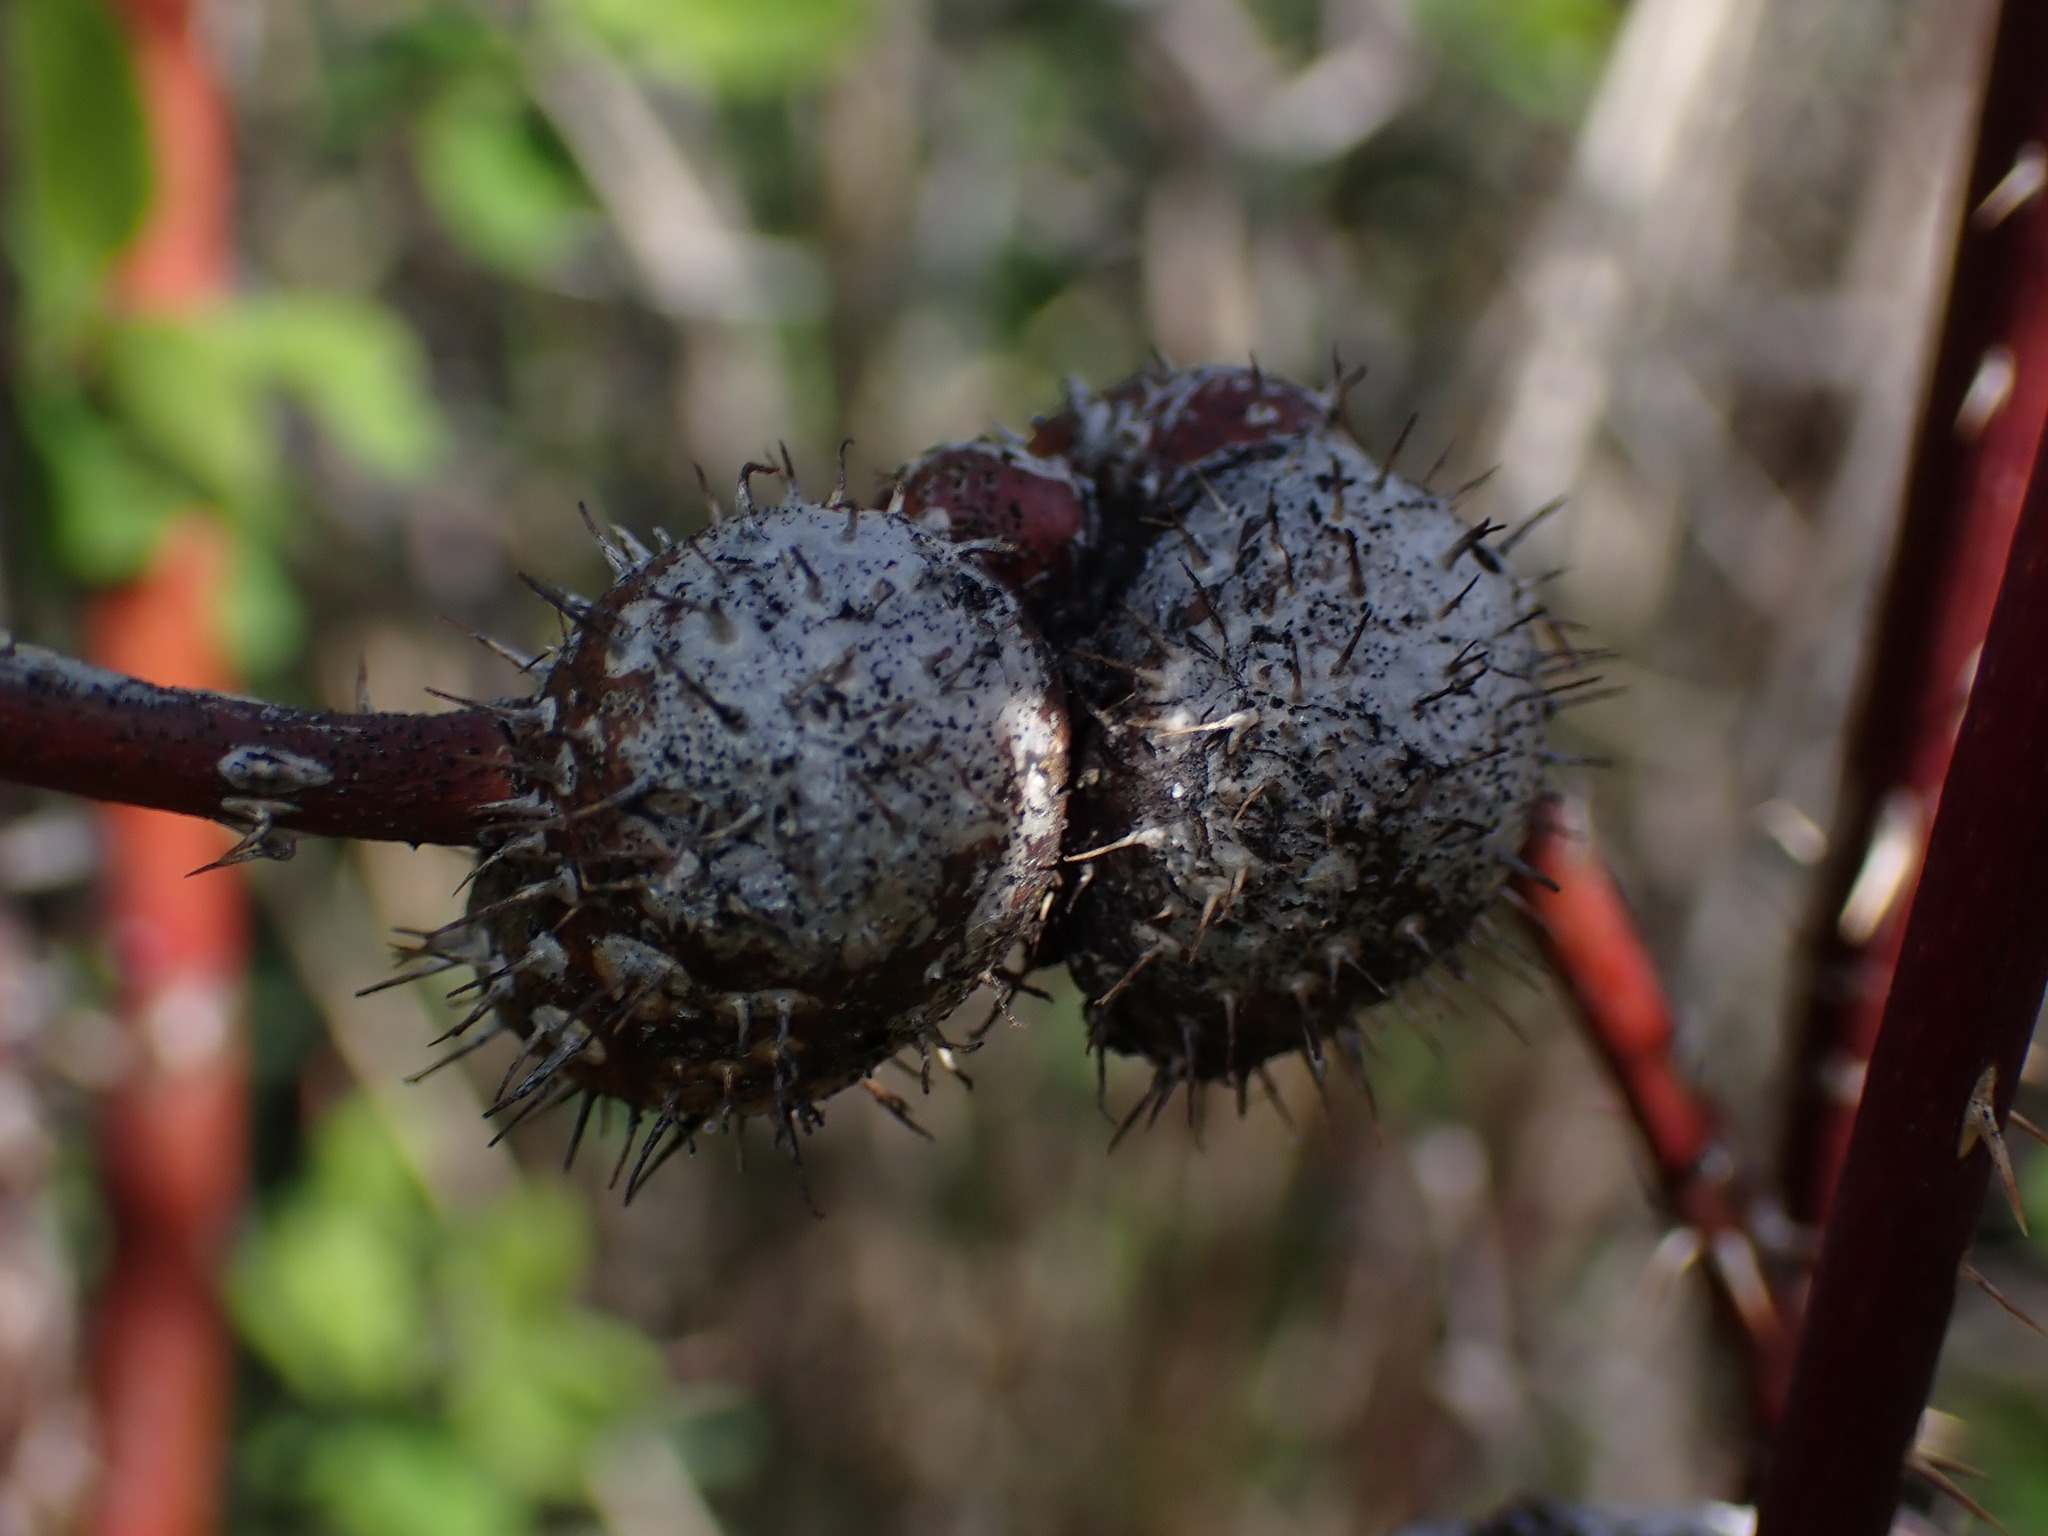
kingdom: Animalia
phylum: Arthropoda
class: Insecta
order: Hymenoptera
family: Cynipidae
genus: Diplolepis
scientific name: Diplolepis spinosa
